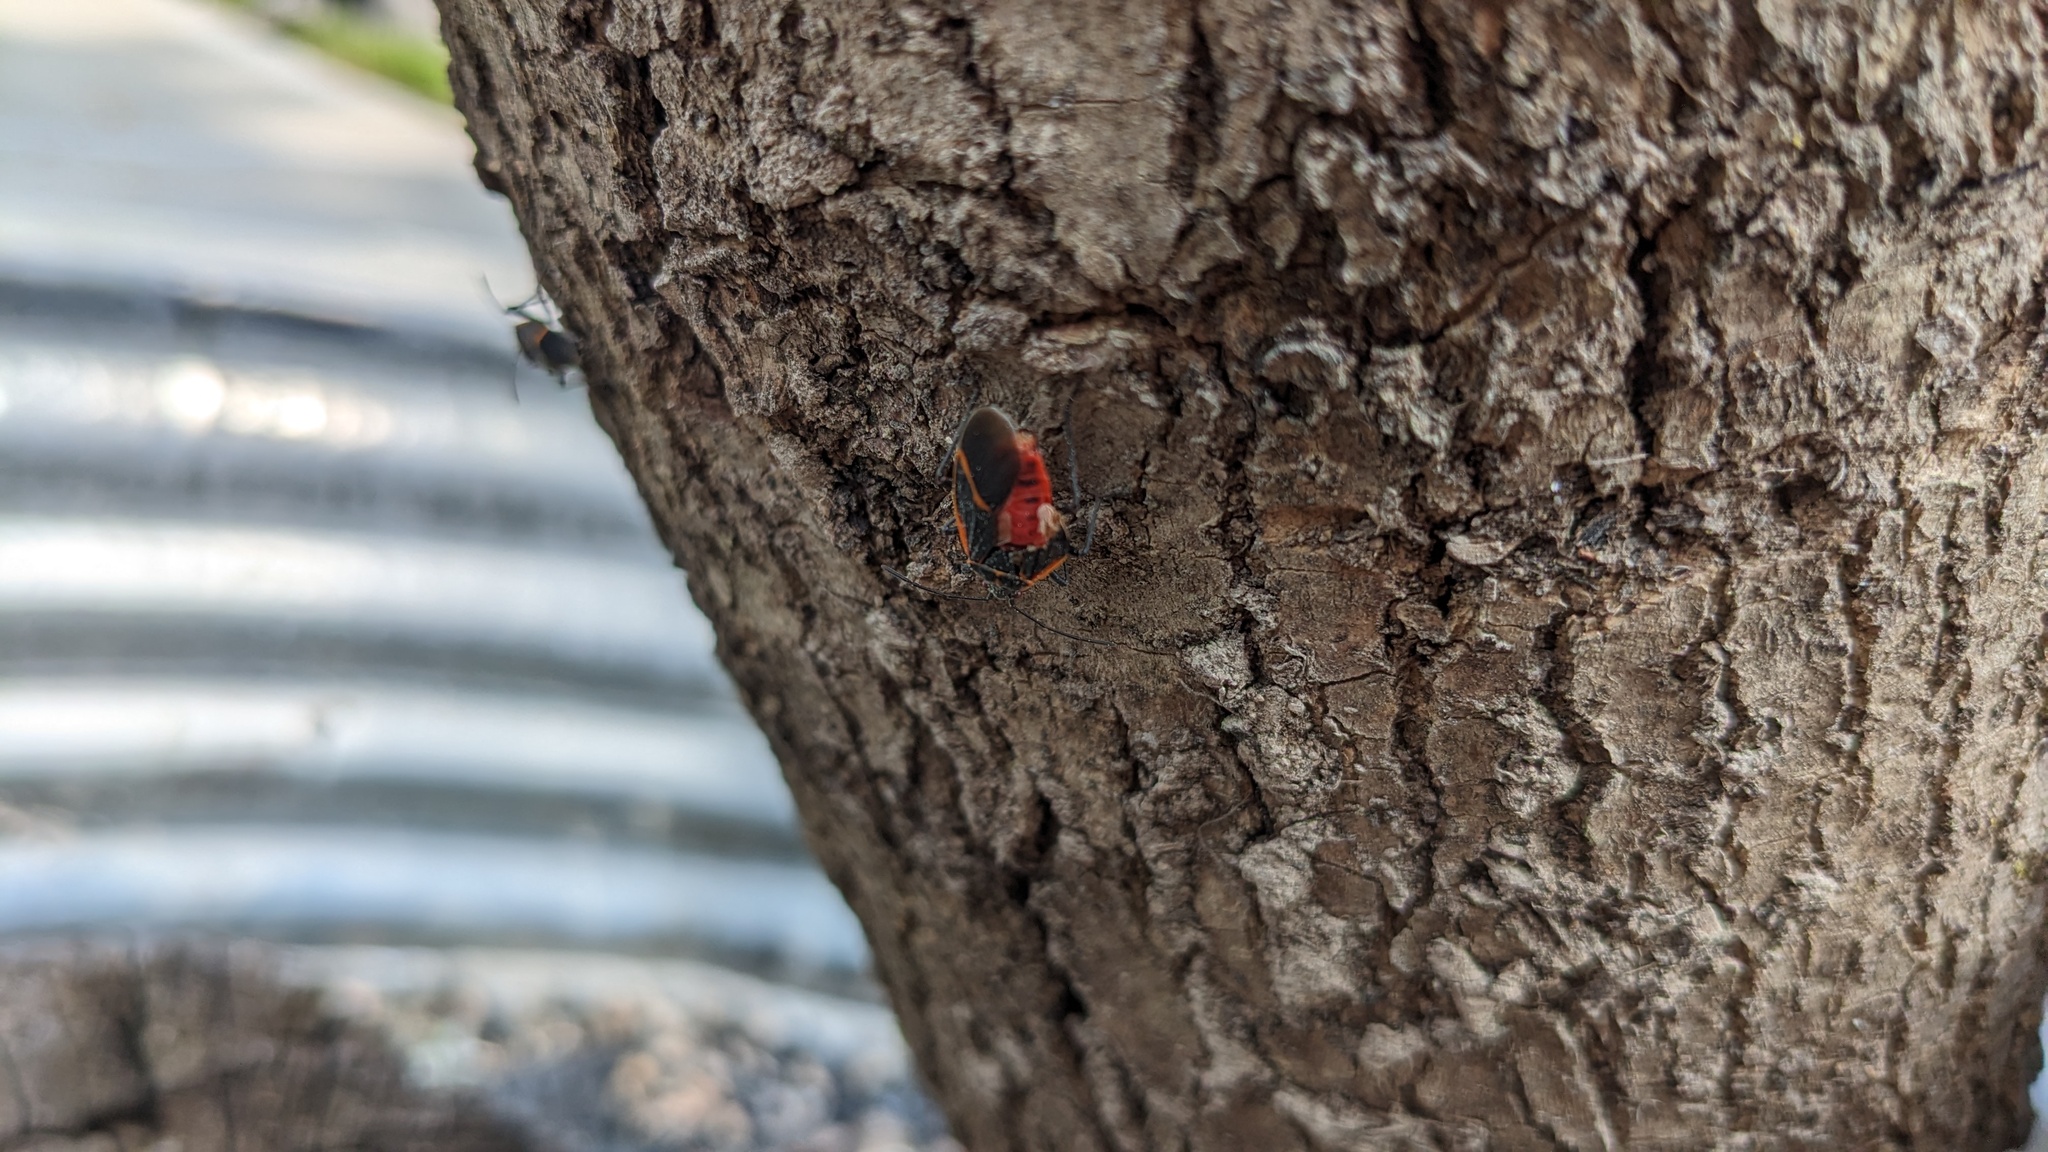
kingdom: Animalia
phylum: Arthropoda
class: Insecta
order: Hemiptera
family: Rhopalidae
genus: Boisea
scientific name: Boisea trivittata
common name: Boxelder bug
